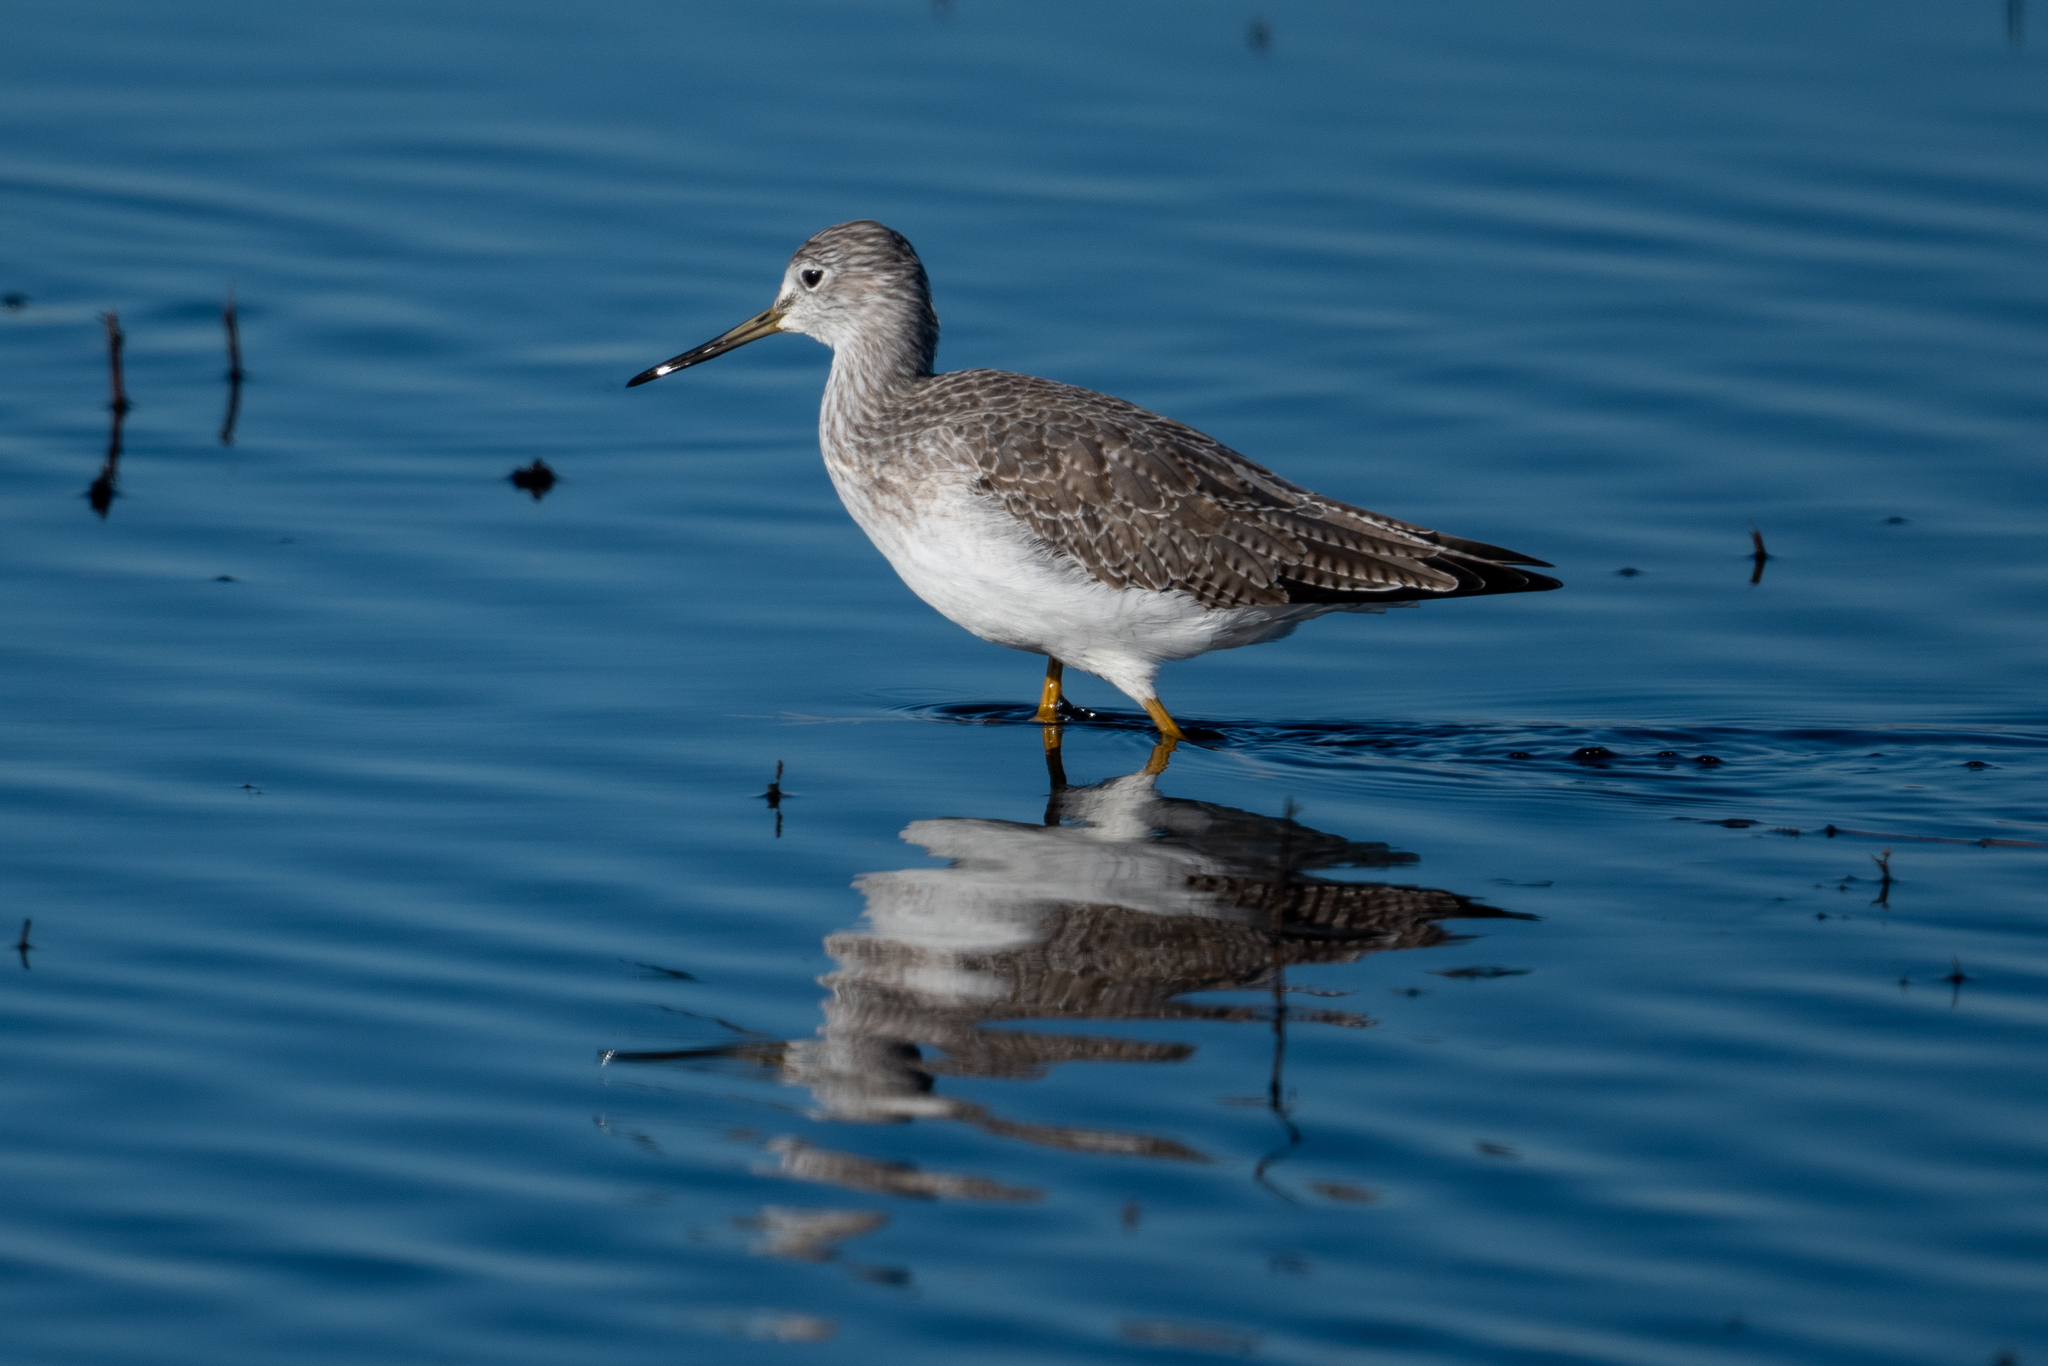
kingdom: Animalia
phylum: Chordata
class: Aves
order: Charadriiformes
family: Scolopacidae
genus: Tringa
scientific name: Tringa melanoleuca
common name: Greater yellowlegs
